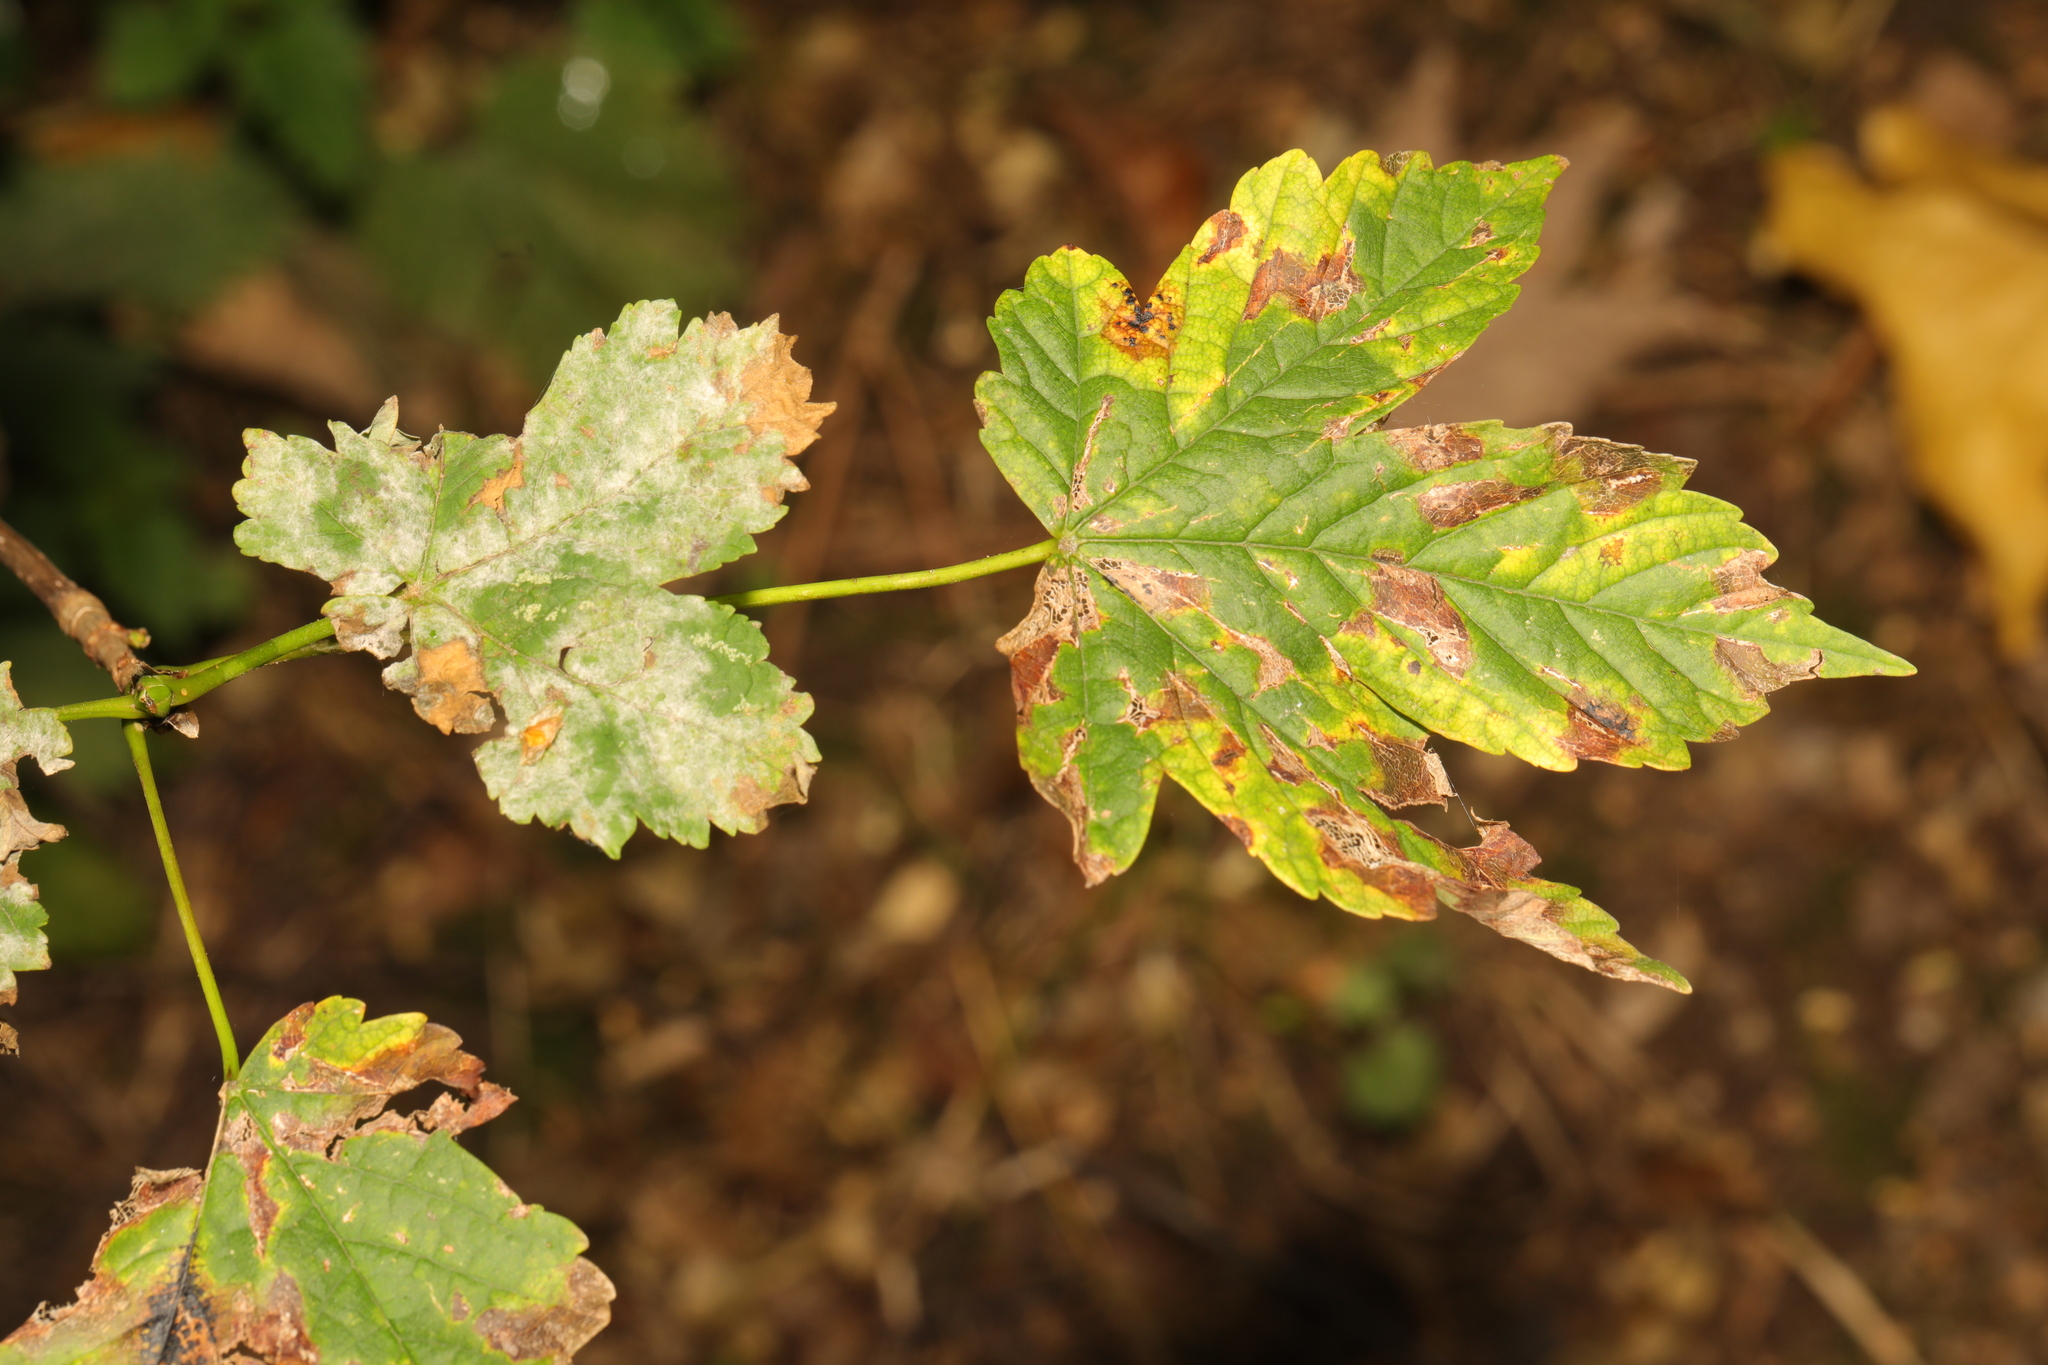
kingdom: Fungi
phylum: Ascomycota
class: Leotiomycetes
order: Helotiales
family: Erysiphaceae
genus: Sawadaea
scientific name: Sawadaea bicornis
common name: Maple mildew
